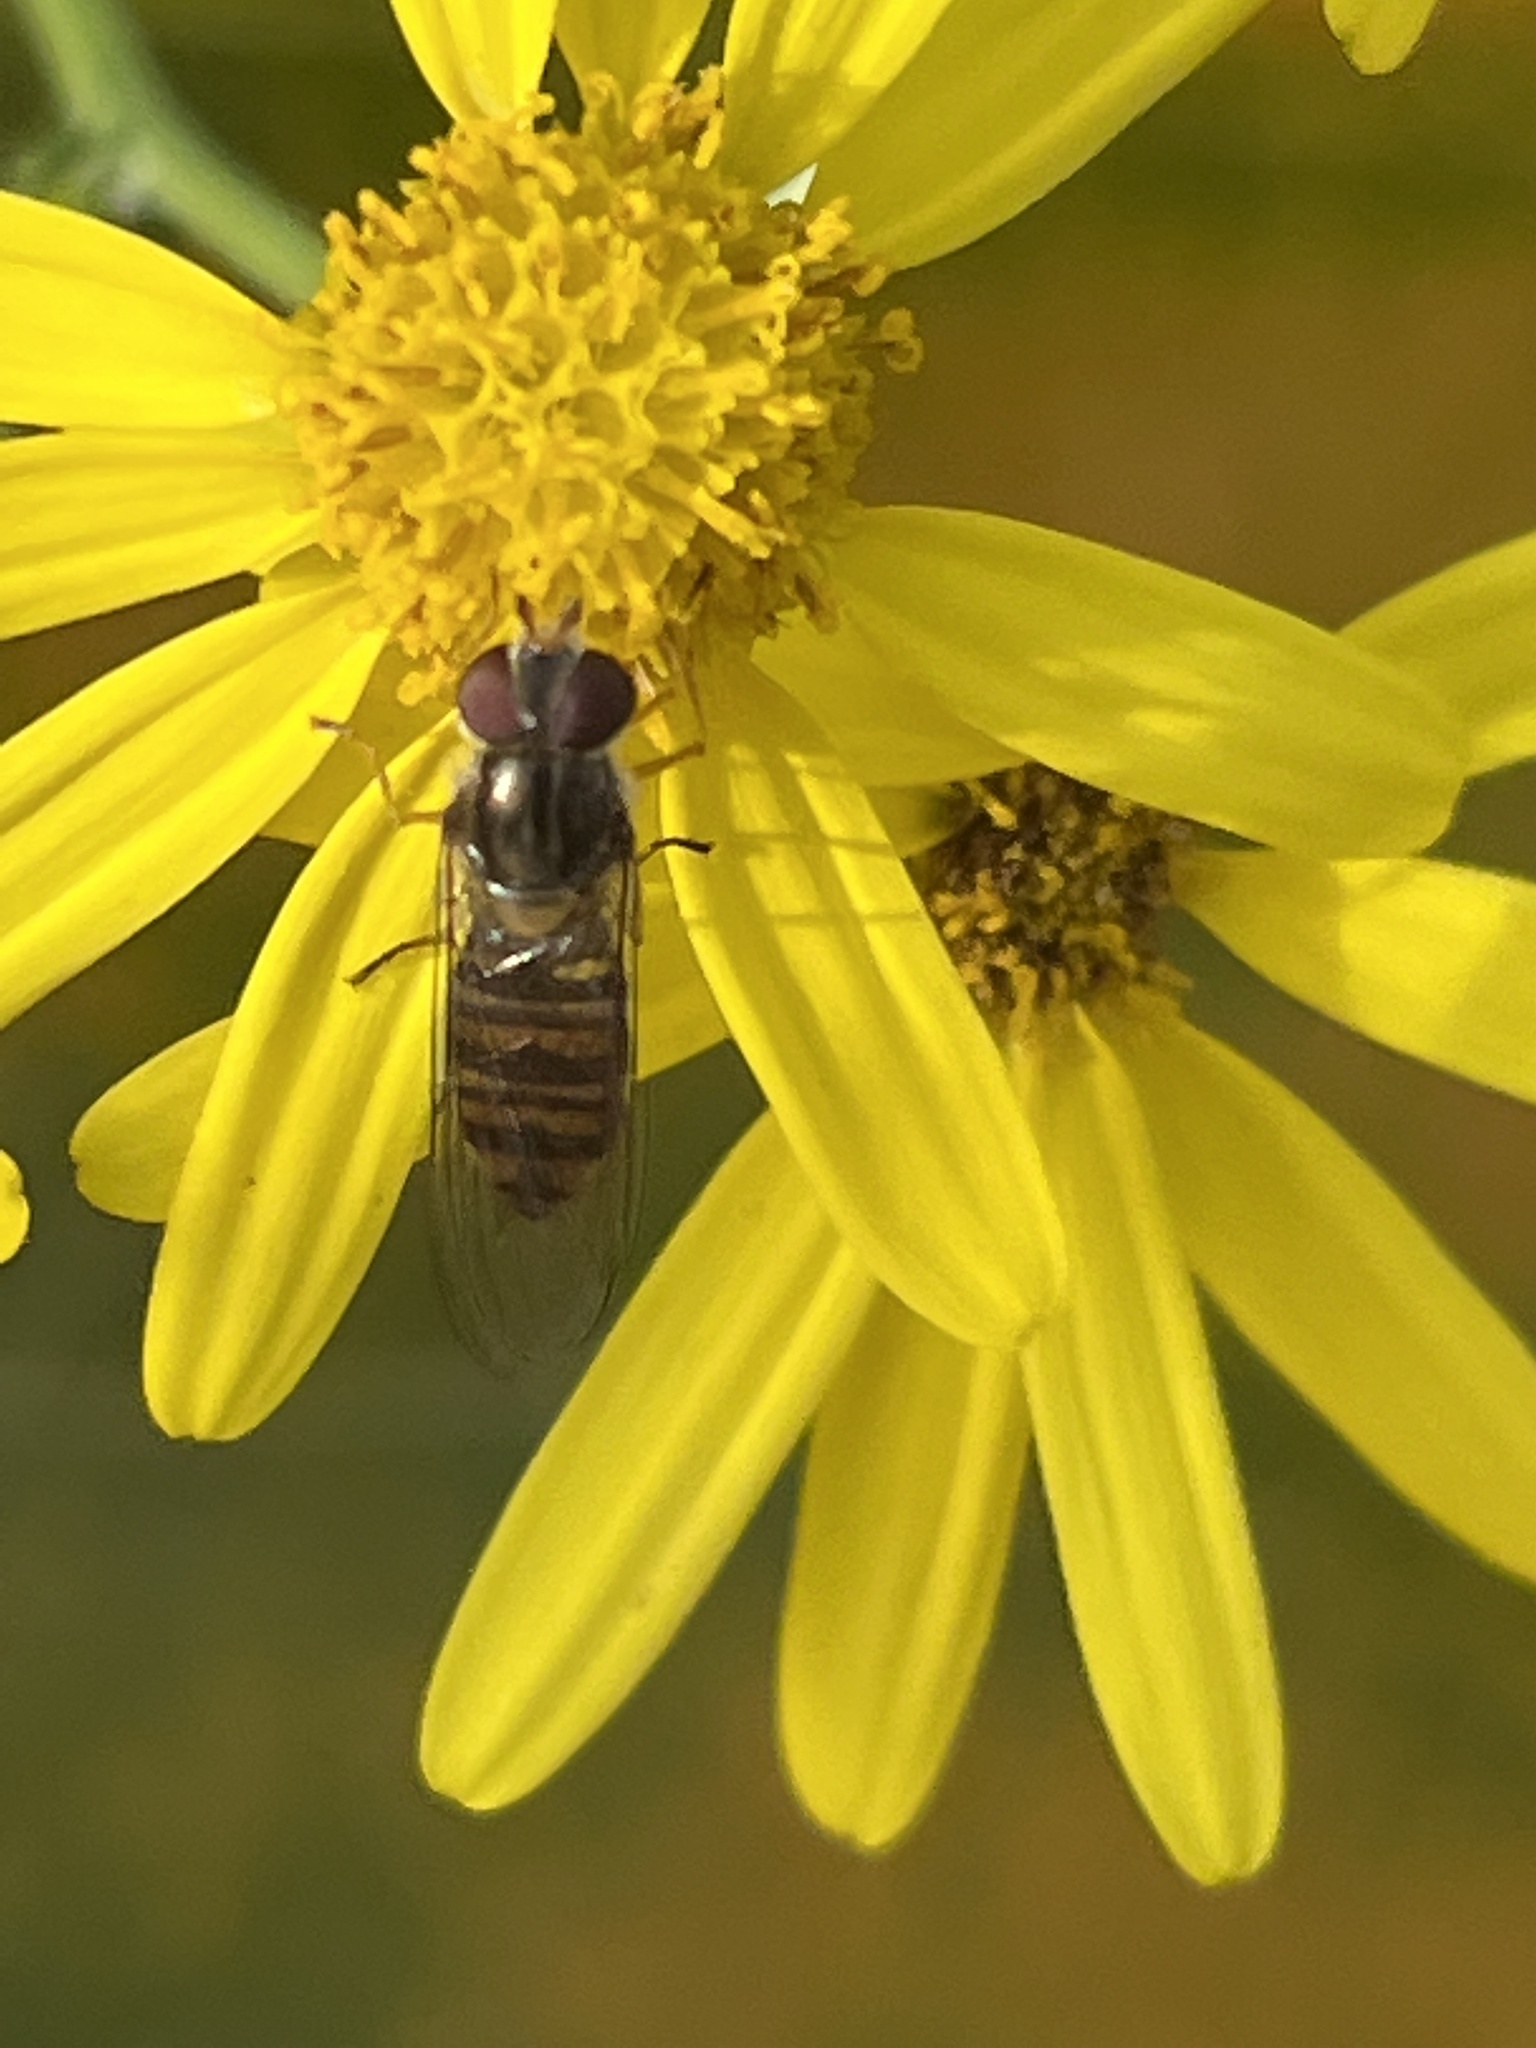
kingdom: Animalia
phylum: Arthropoda
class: Insecta
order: Diptera
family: Syrphidae
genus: Episyrphus
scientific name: Episyrphus balteatus
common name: Marmalade hoverfly
